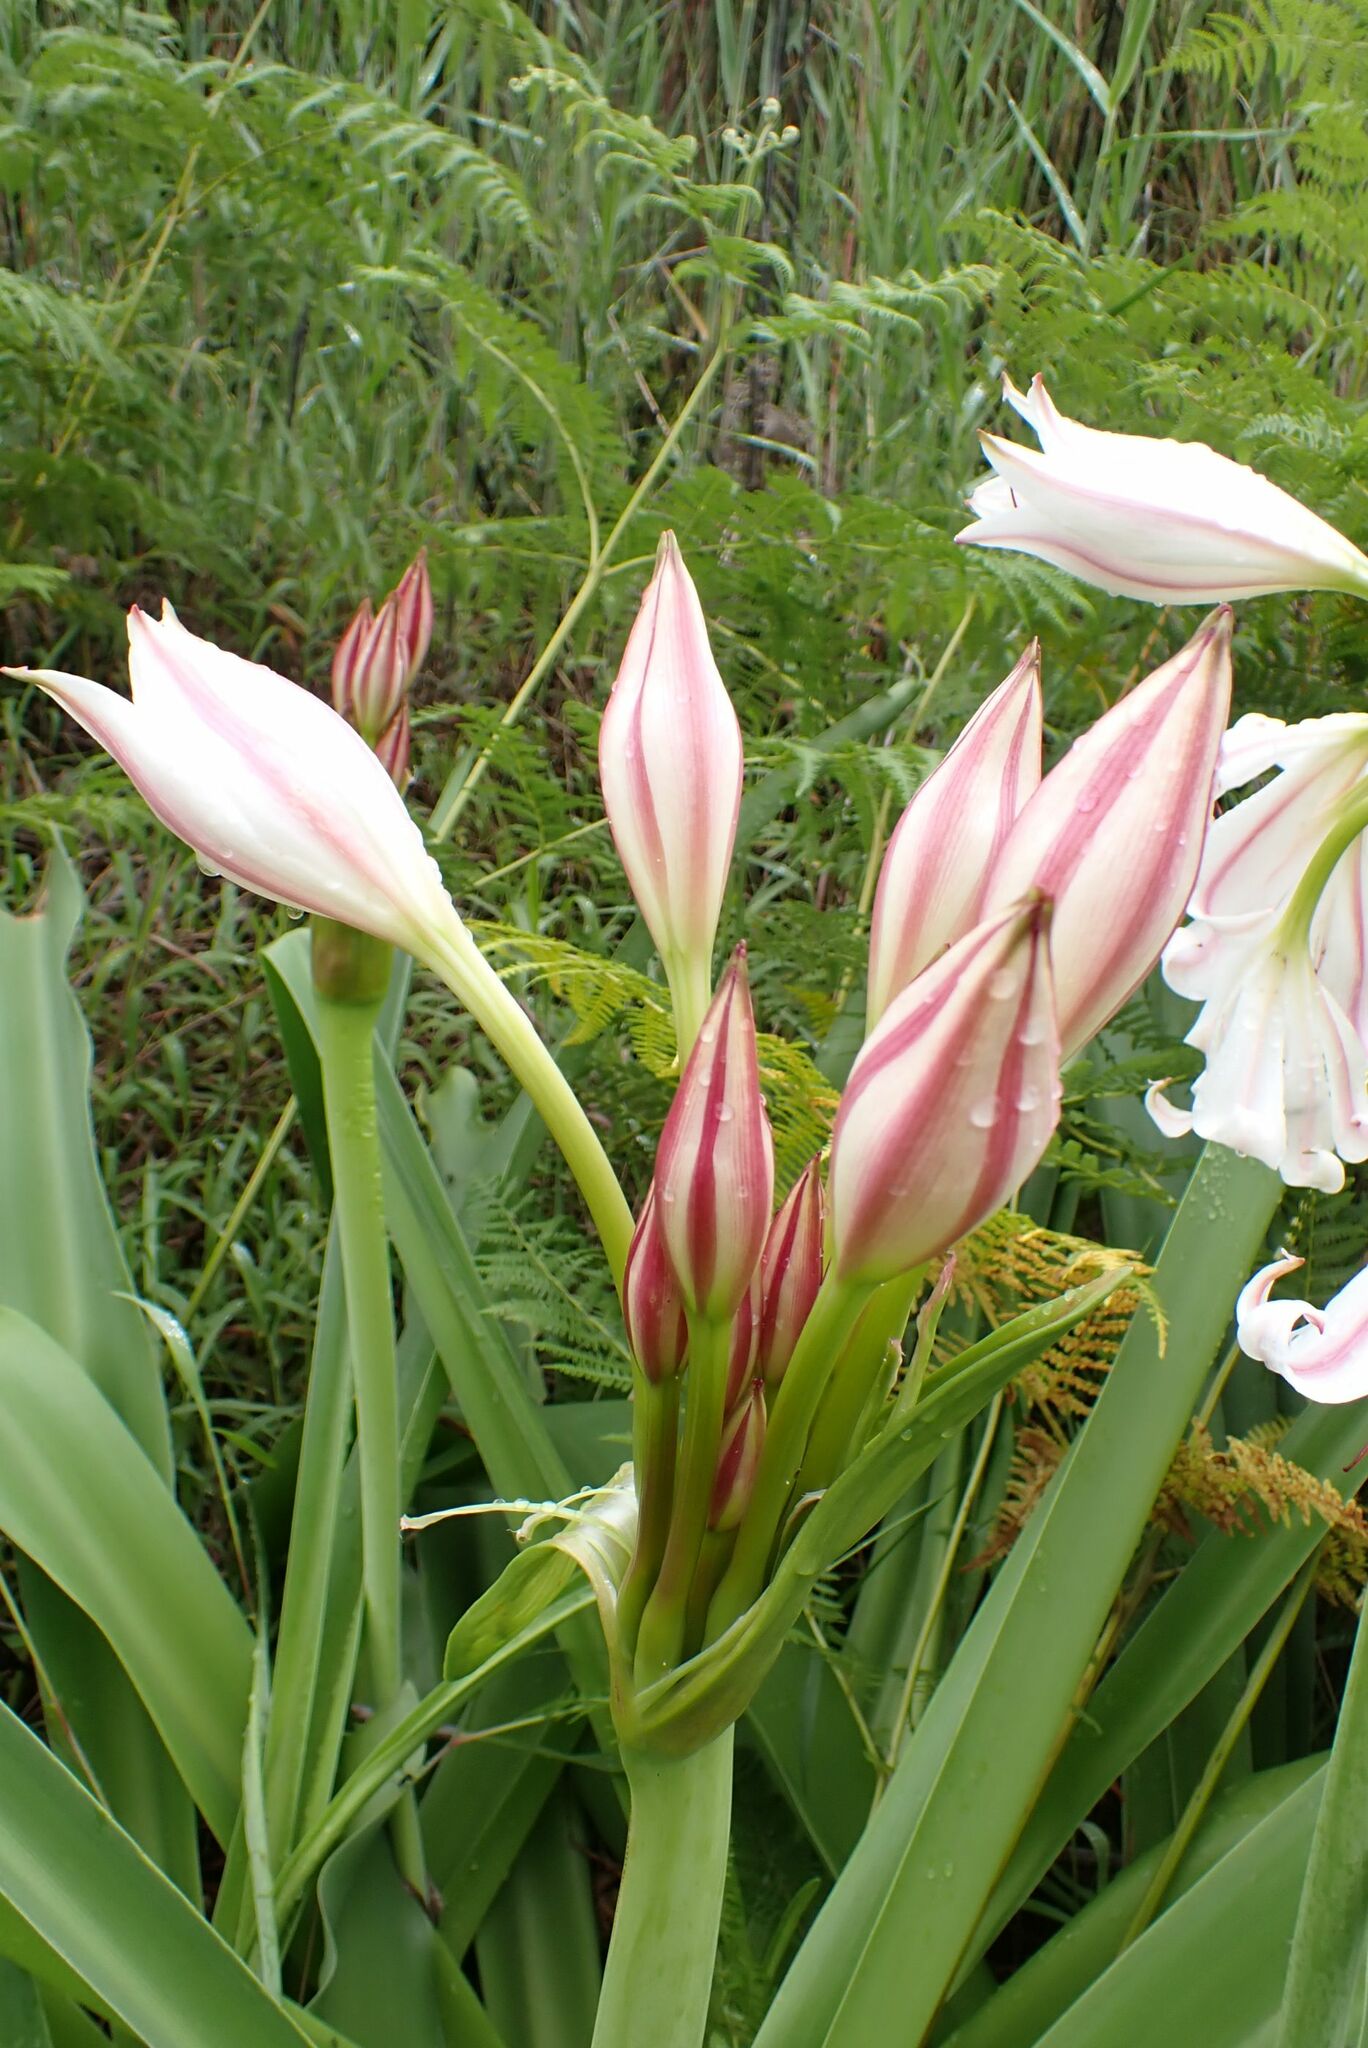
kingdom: Plantae
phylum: Tracheophyta
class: Liliopsida
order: Asparagales
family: Amaryllidaceae
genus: Crinum
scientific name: Crinum macowanii
